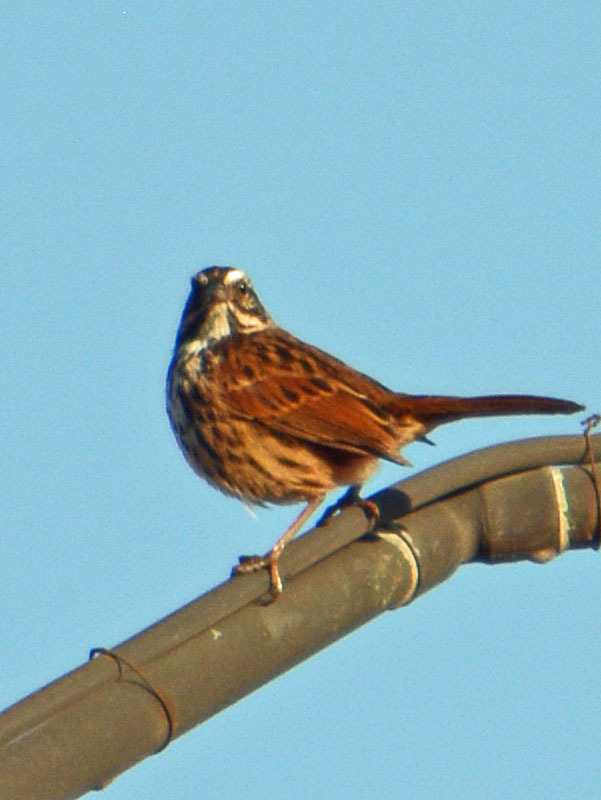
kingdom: Animalia
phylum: Chordata
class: Aves
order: Passeriformes
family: Passerellidae
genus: Melospiza
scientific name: Melospiza melodia
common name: Song sparrow
